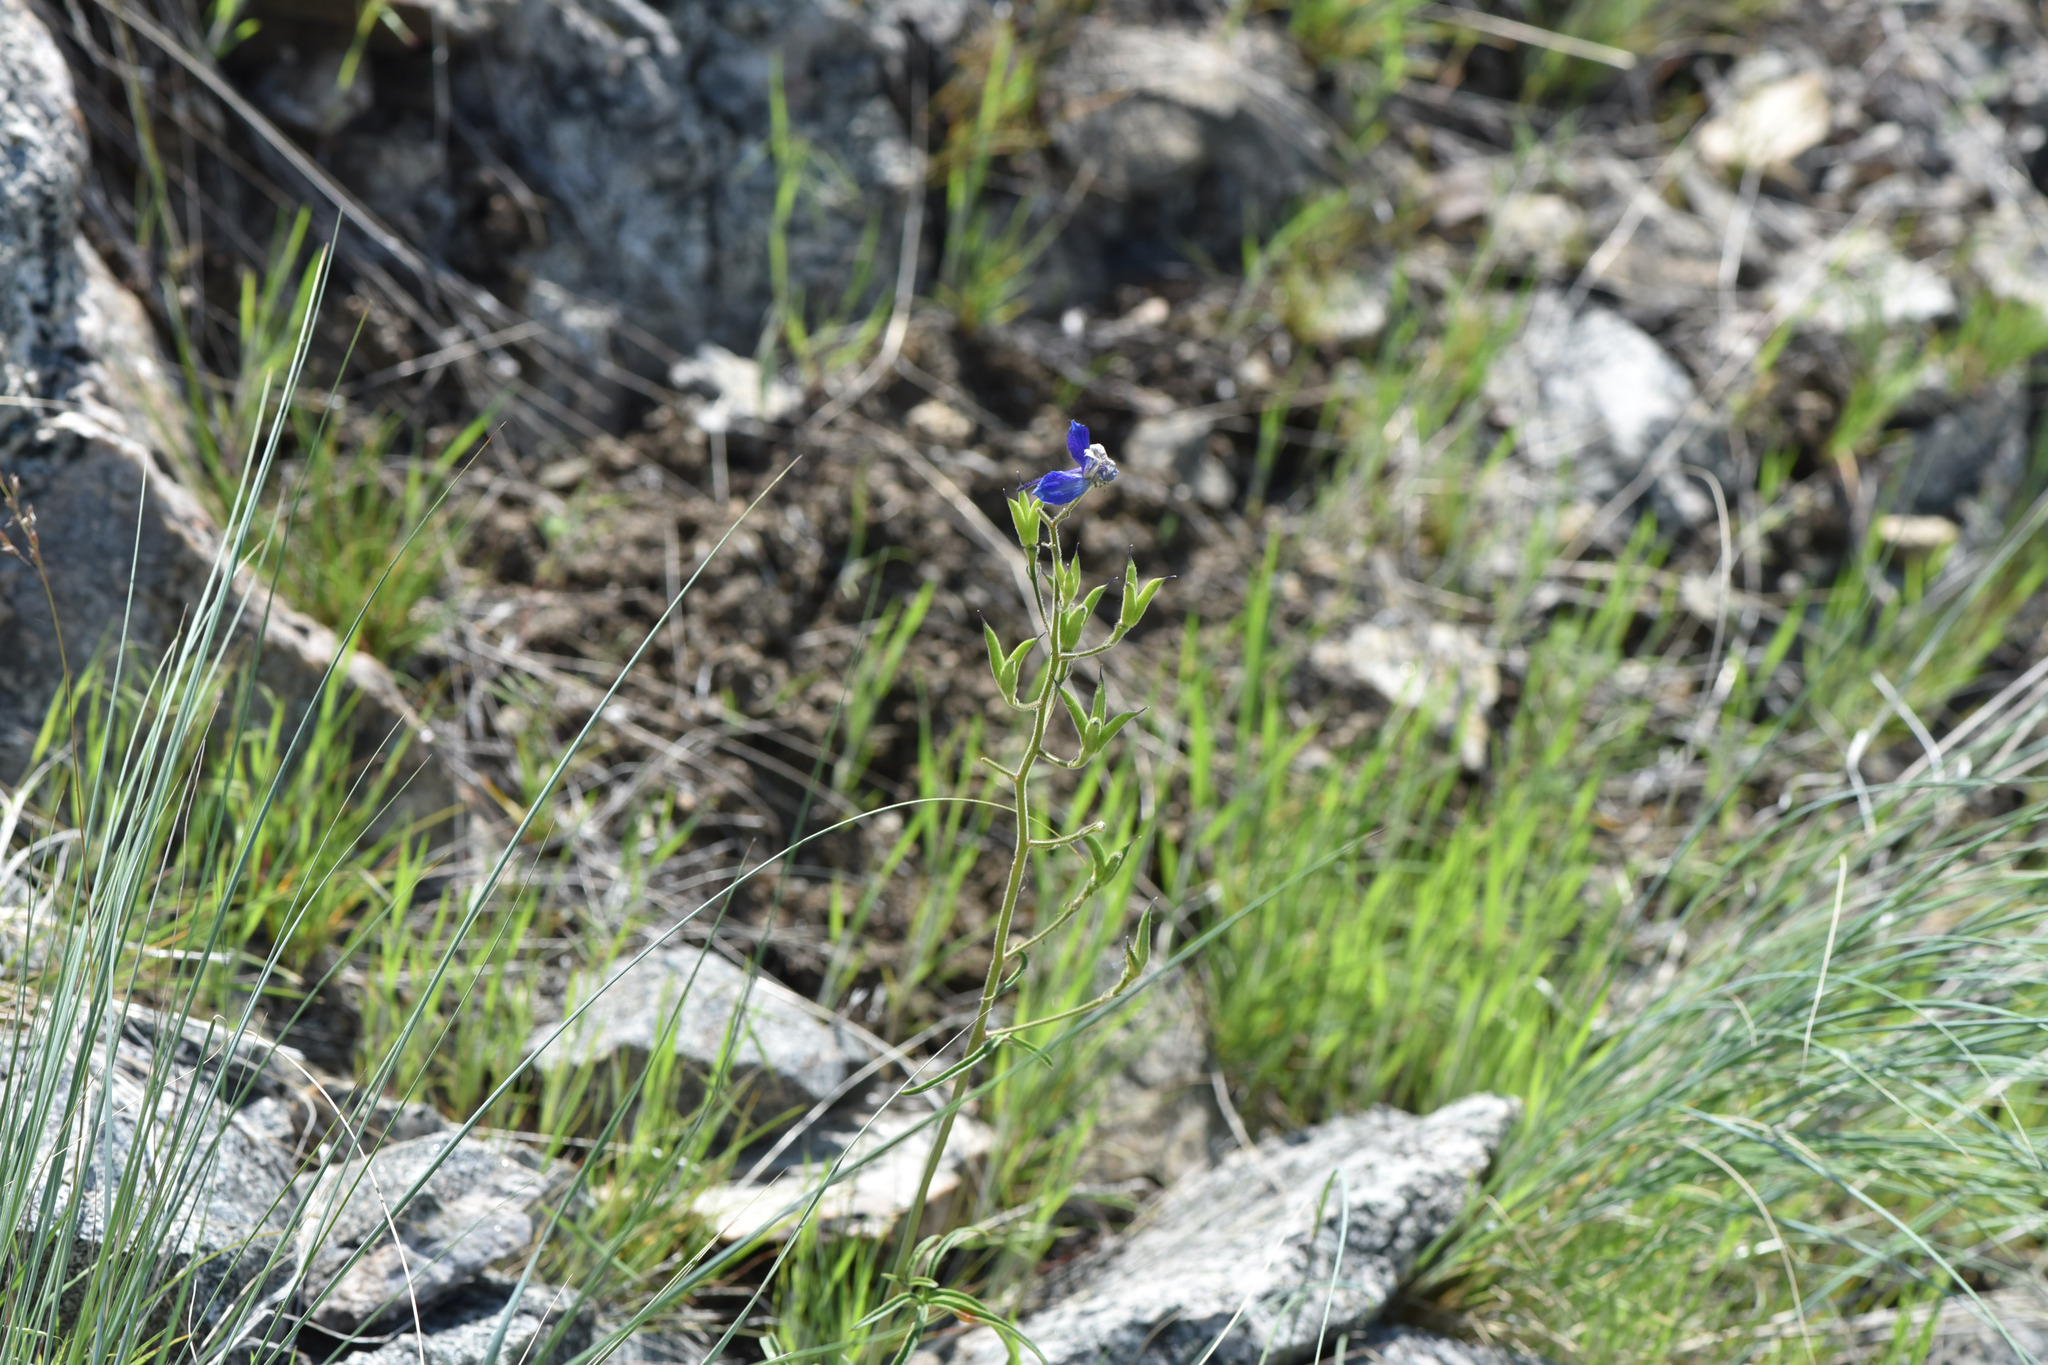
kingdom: Plantae
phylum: Tracheophyta
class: Magnoliopsida
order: Ranunculales
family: Ranunculaceae
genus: Delphinium
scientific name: Delphinium nuttallianum
